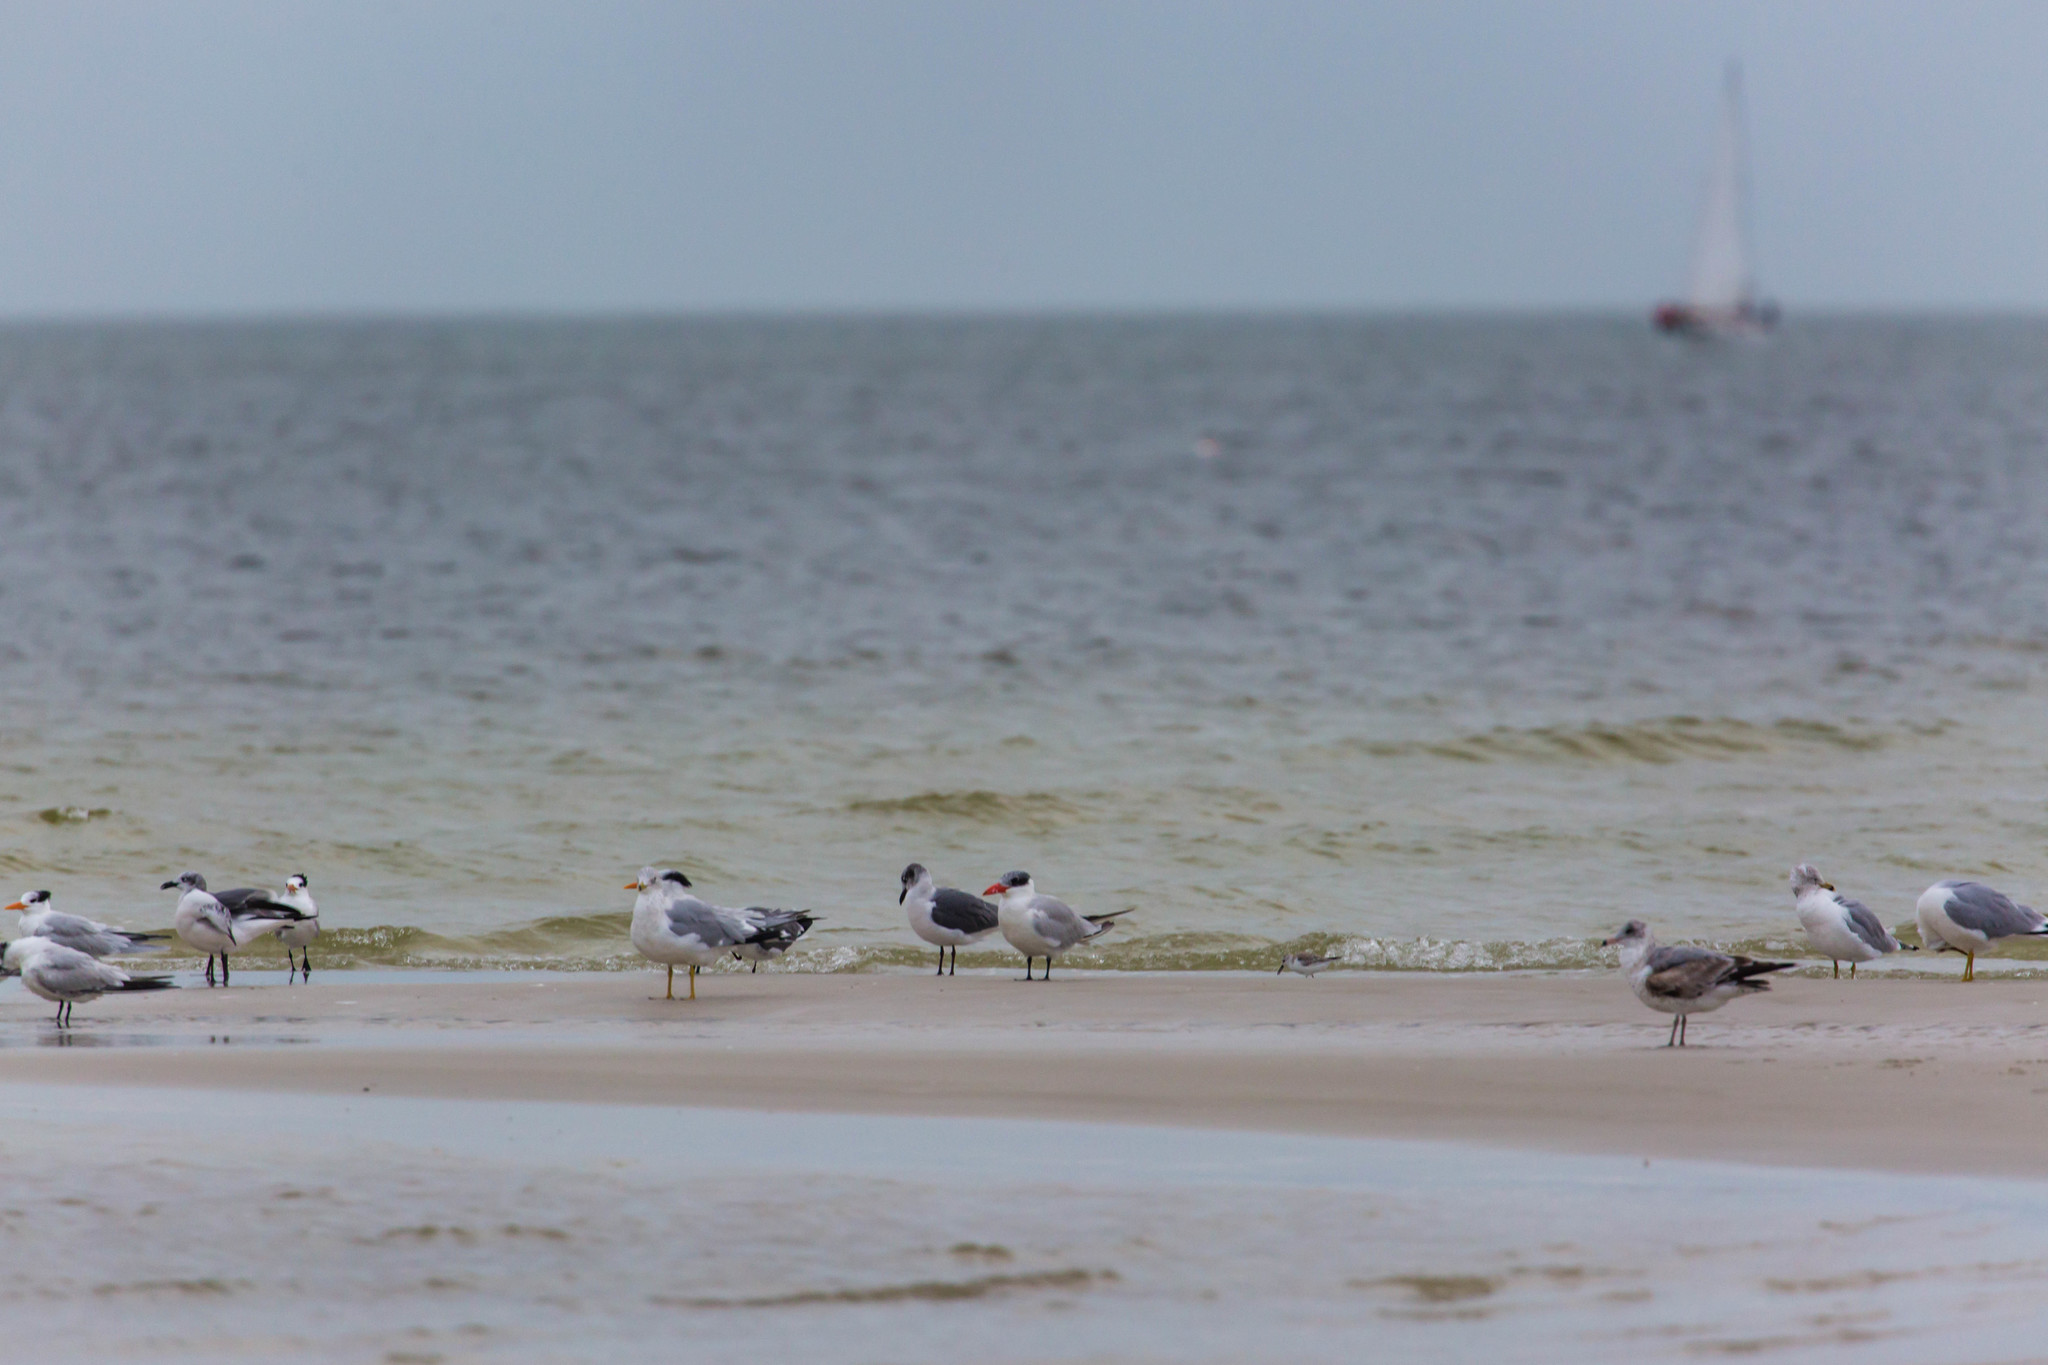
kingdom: Animalia
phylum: Chordata
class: Aves
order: Charadriiformes
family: Laridae
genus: Hydroprogne
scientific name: Hydroprogne caspia
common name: Caspian tern
